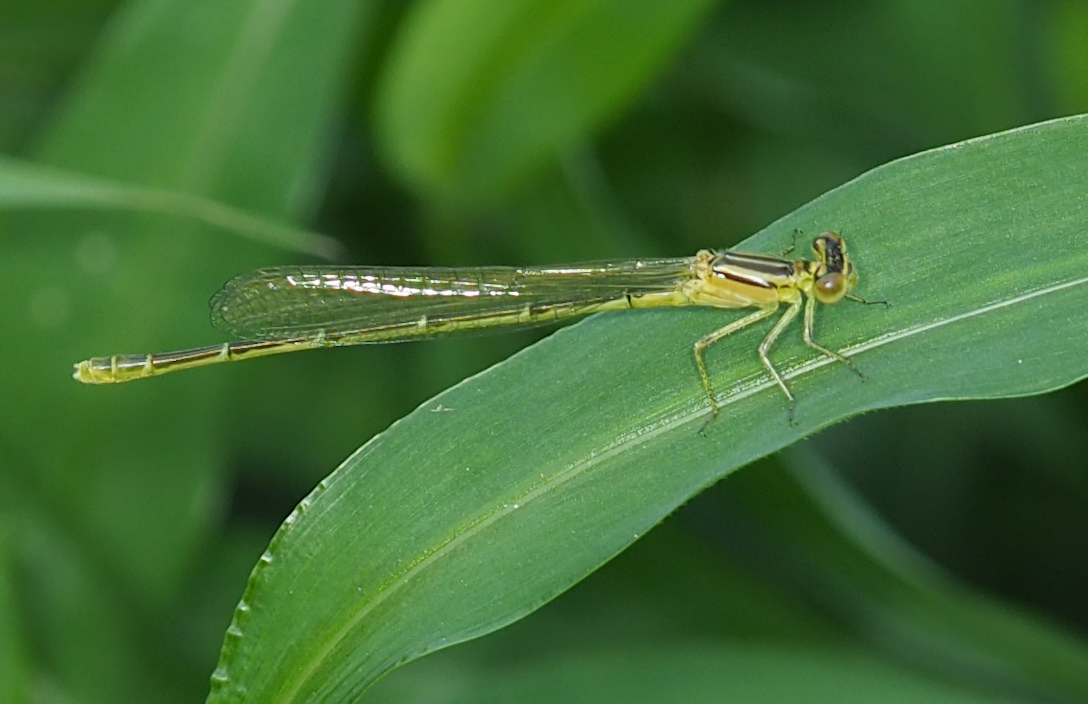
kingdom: Animalia
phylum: Arthropoda
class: Insecta
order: Odonata
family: Coenagrionidae
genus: Enallagma
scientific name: Enallagma durum
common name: Big bluet
